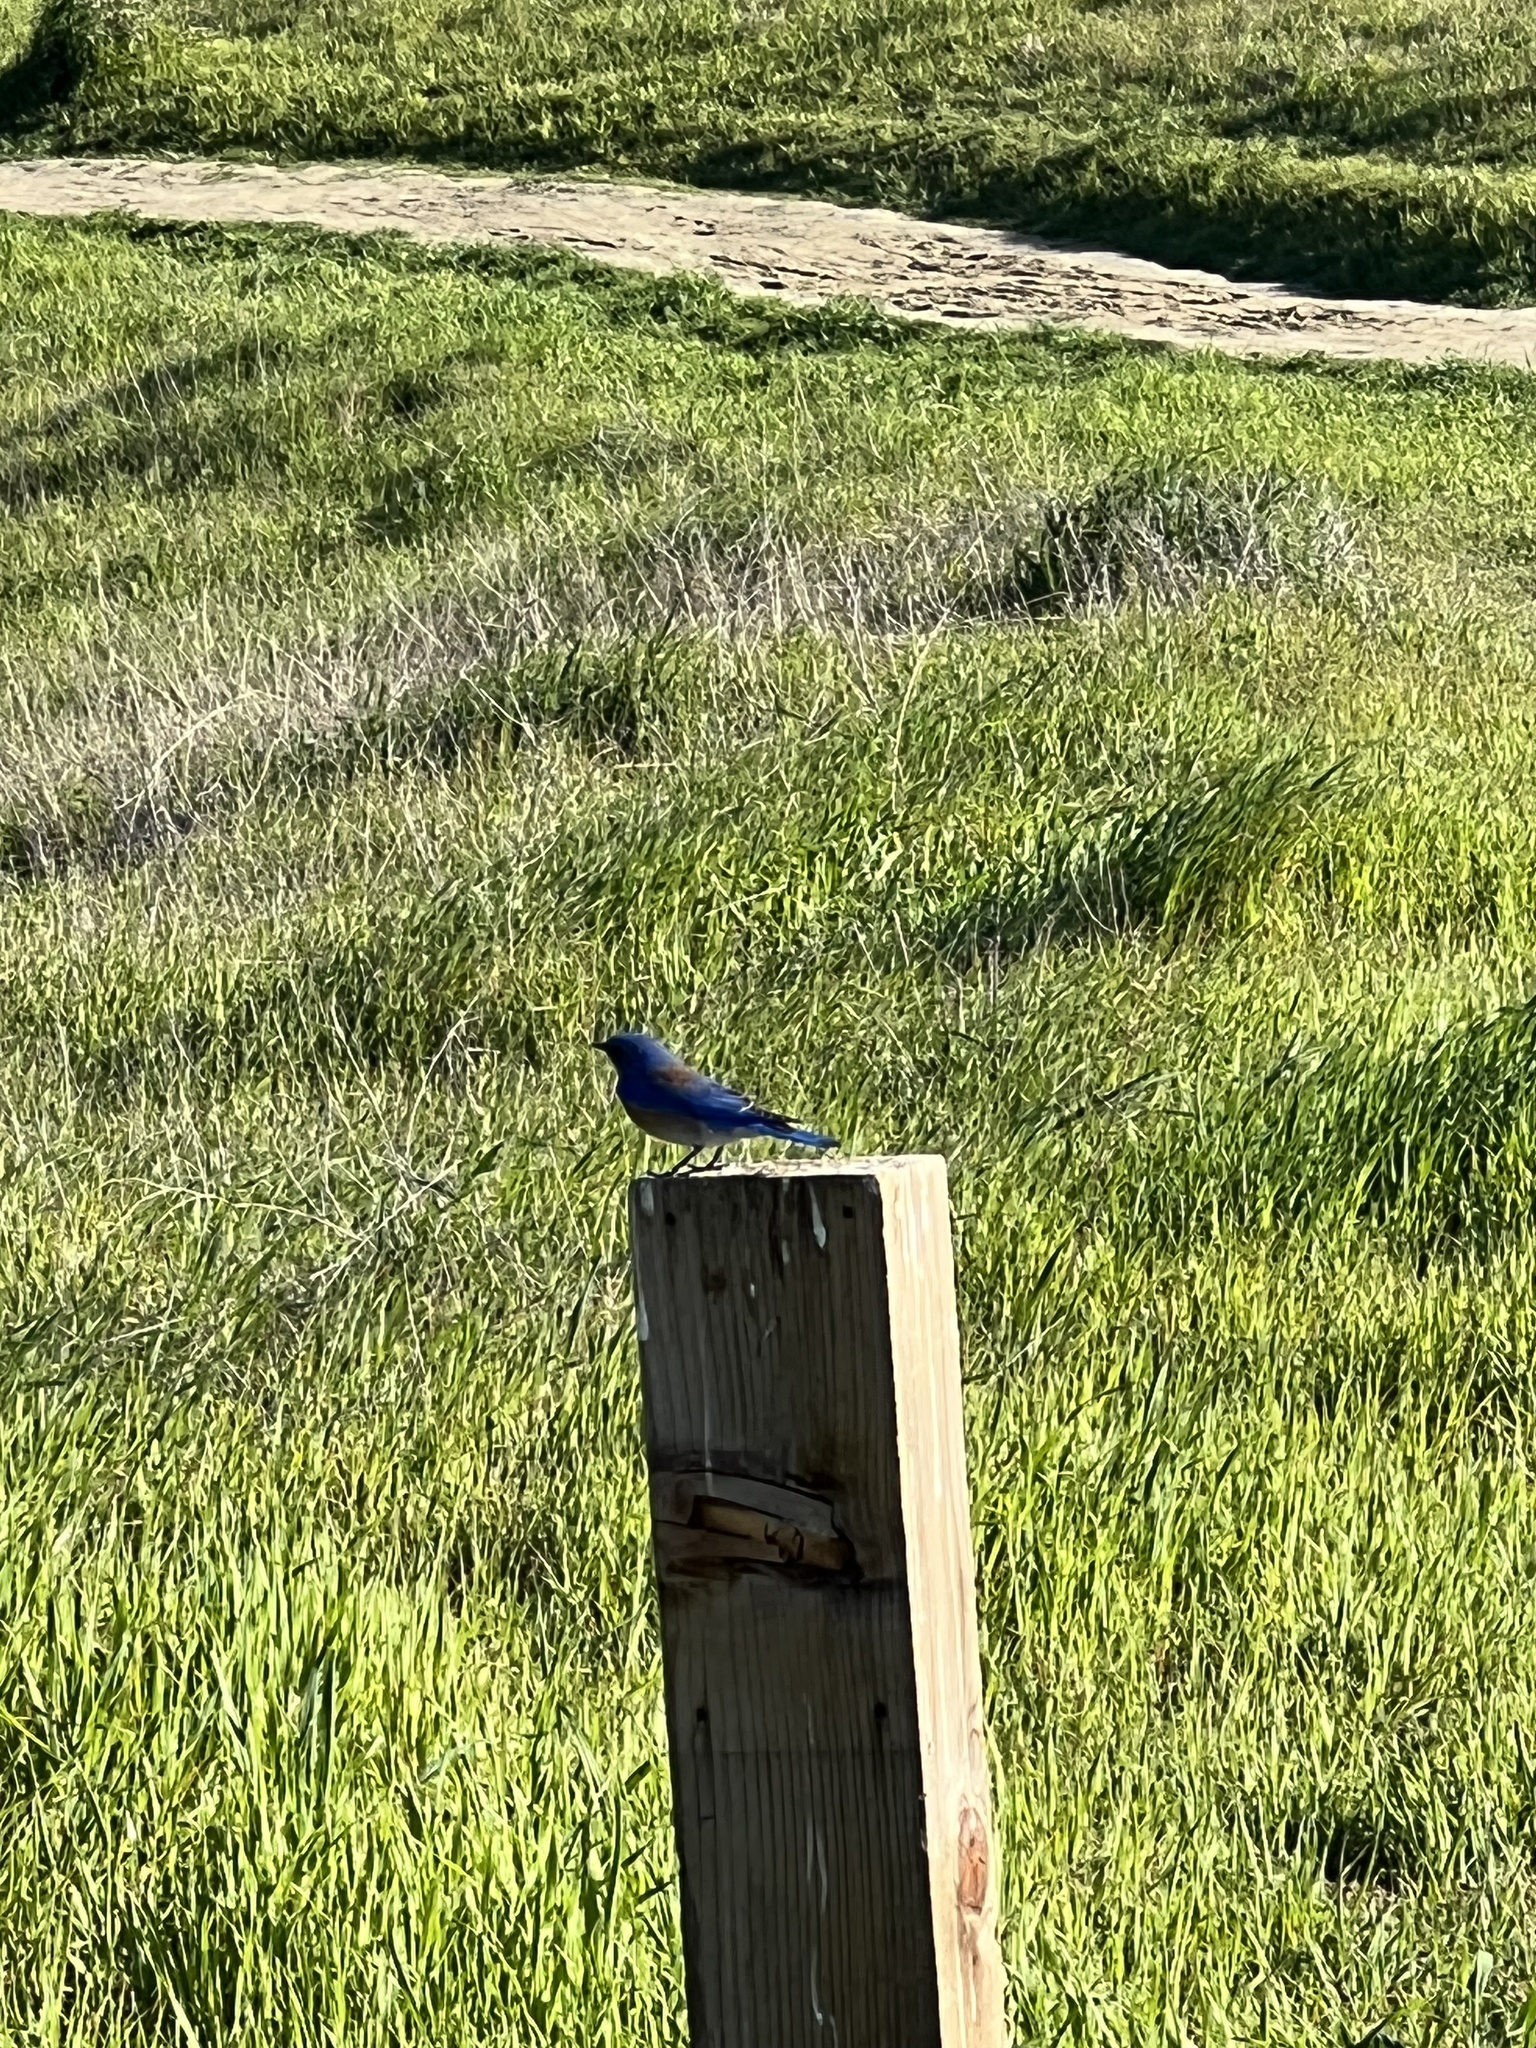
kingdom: Animalia
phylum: Chordata
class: Aves
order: Passeriformes
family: Turdidae
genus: Sialia
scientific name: Sialia mexicana
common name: Western bluebird
